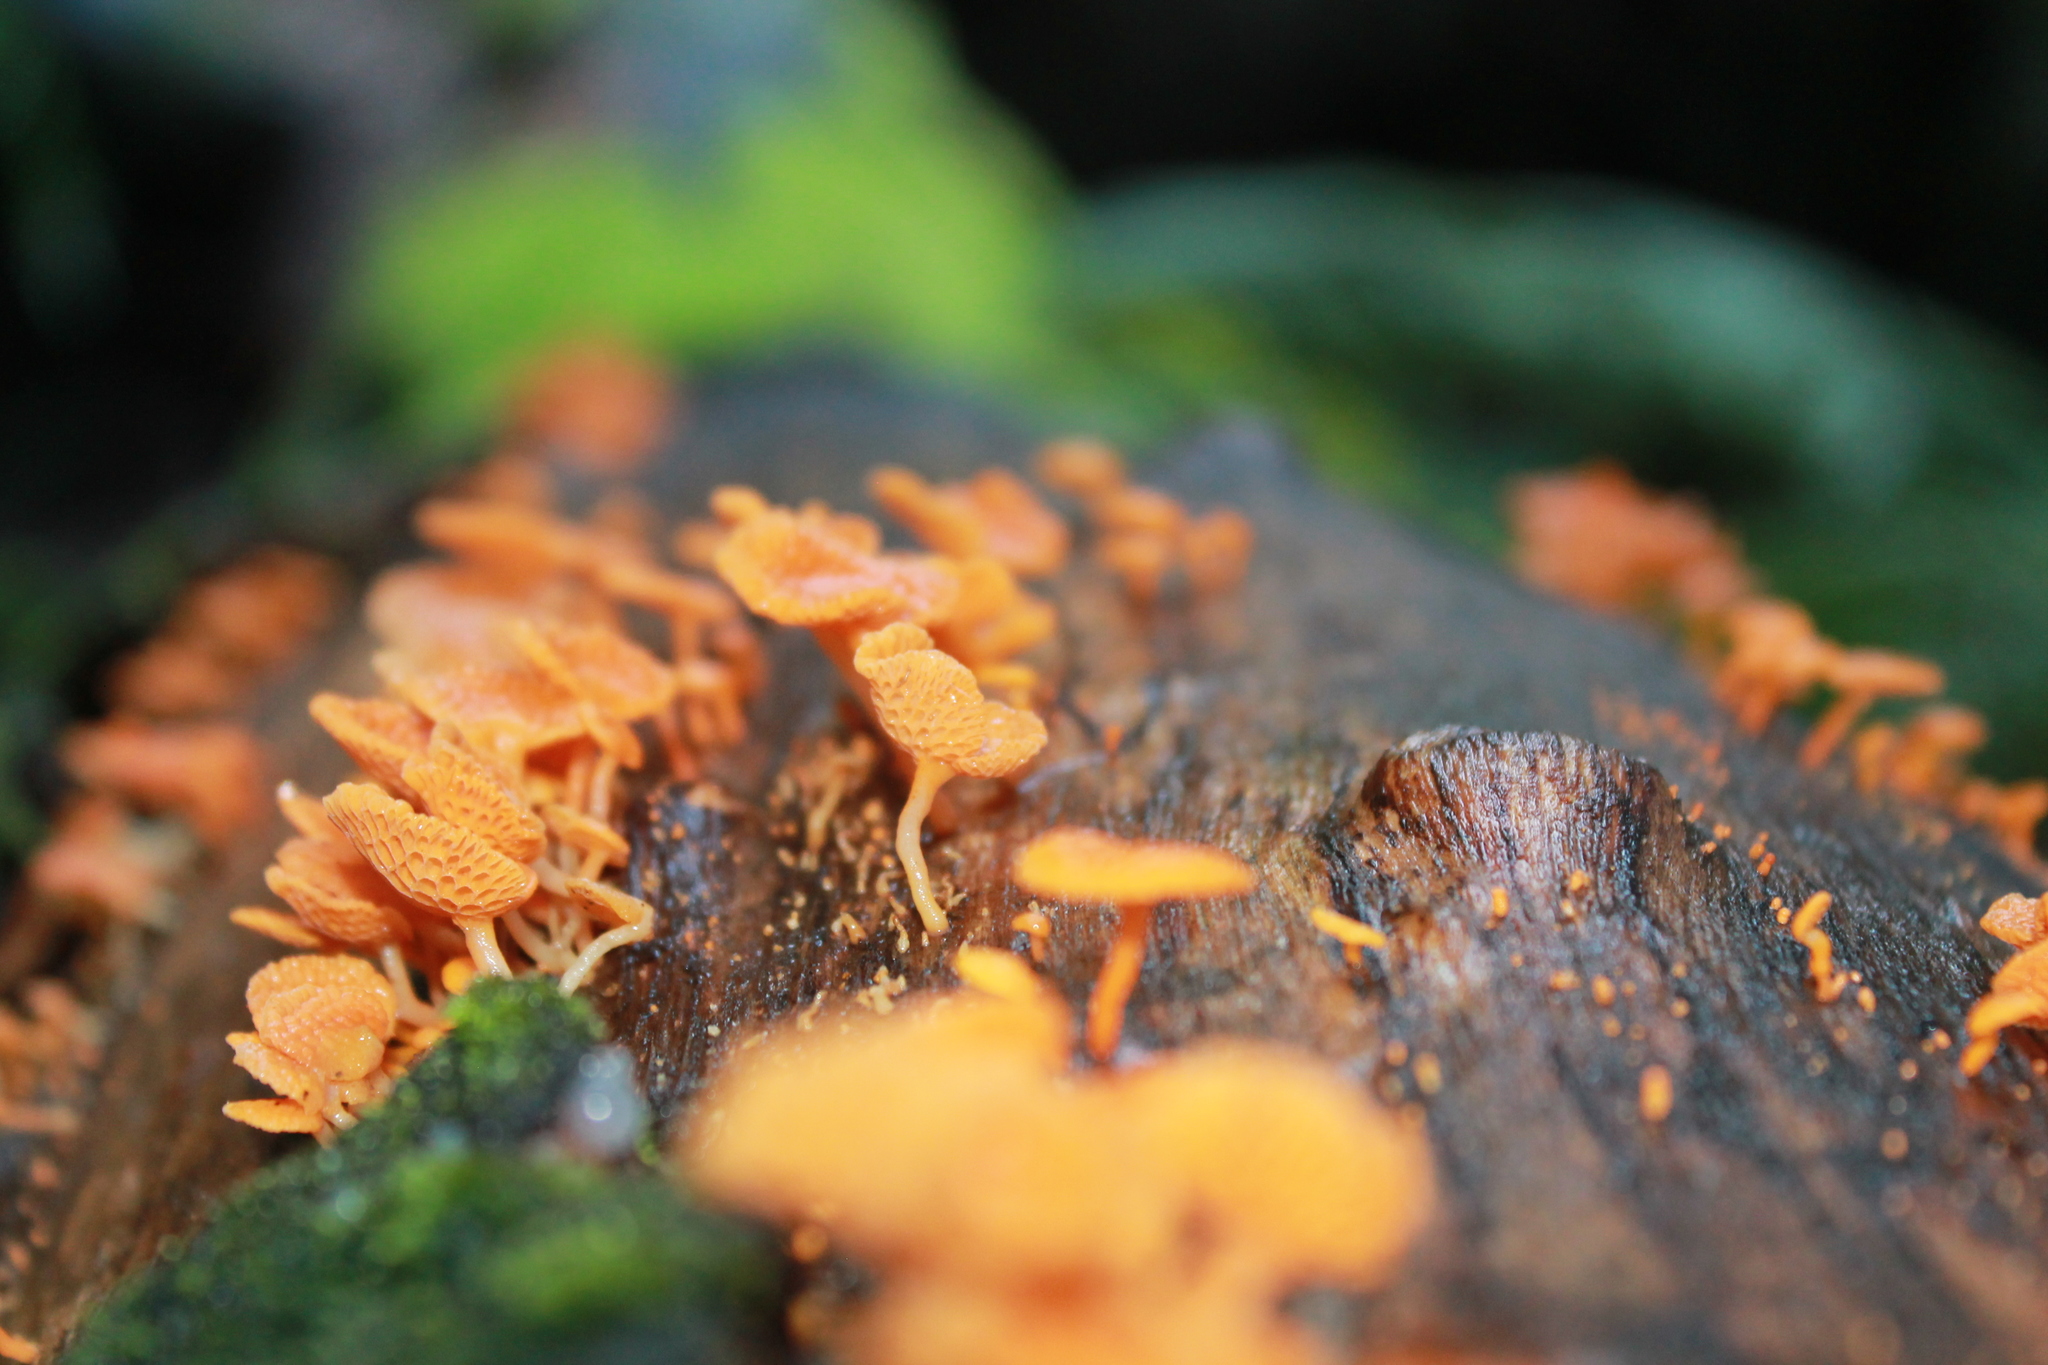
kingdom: Fungi
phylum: Basidiomycota
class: Agaricomycetes
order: Agaricales
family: Mycenaceae
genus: Favolaschia
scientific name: Favolaschia claudopus
